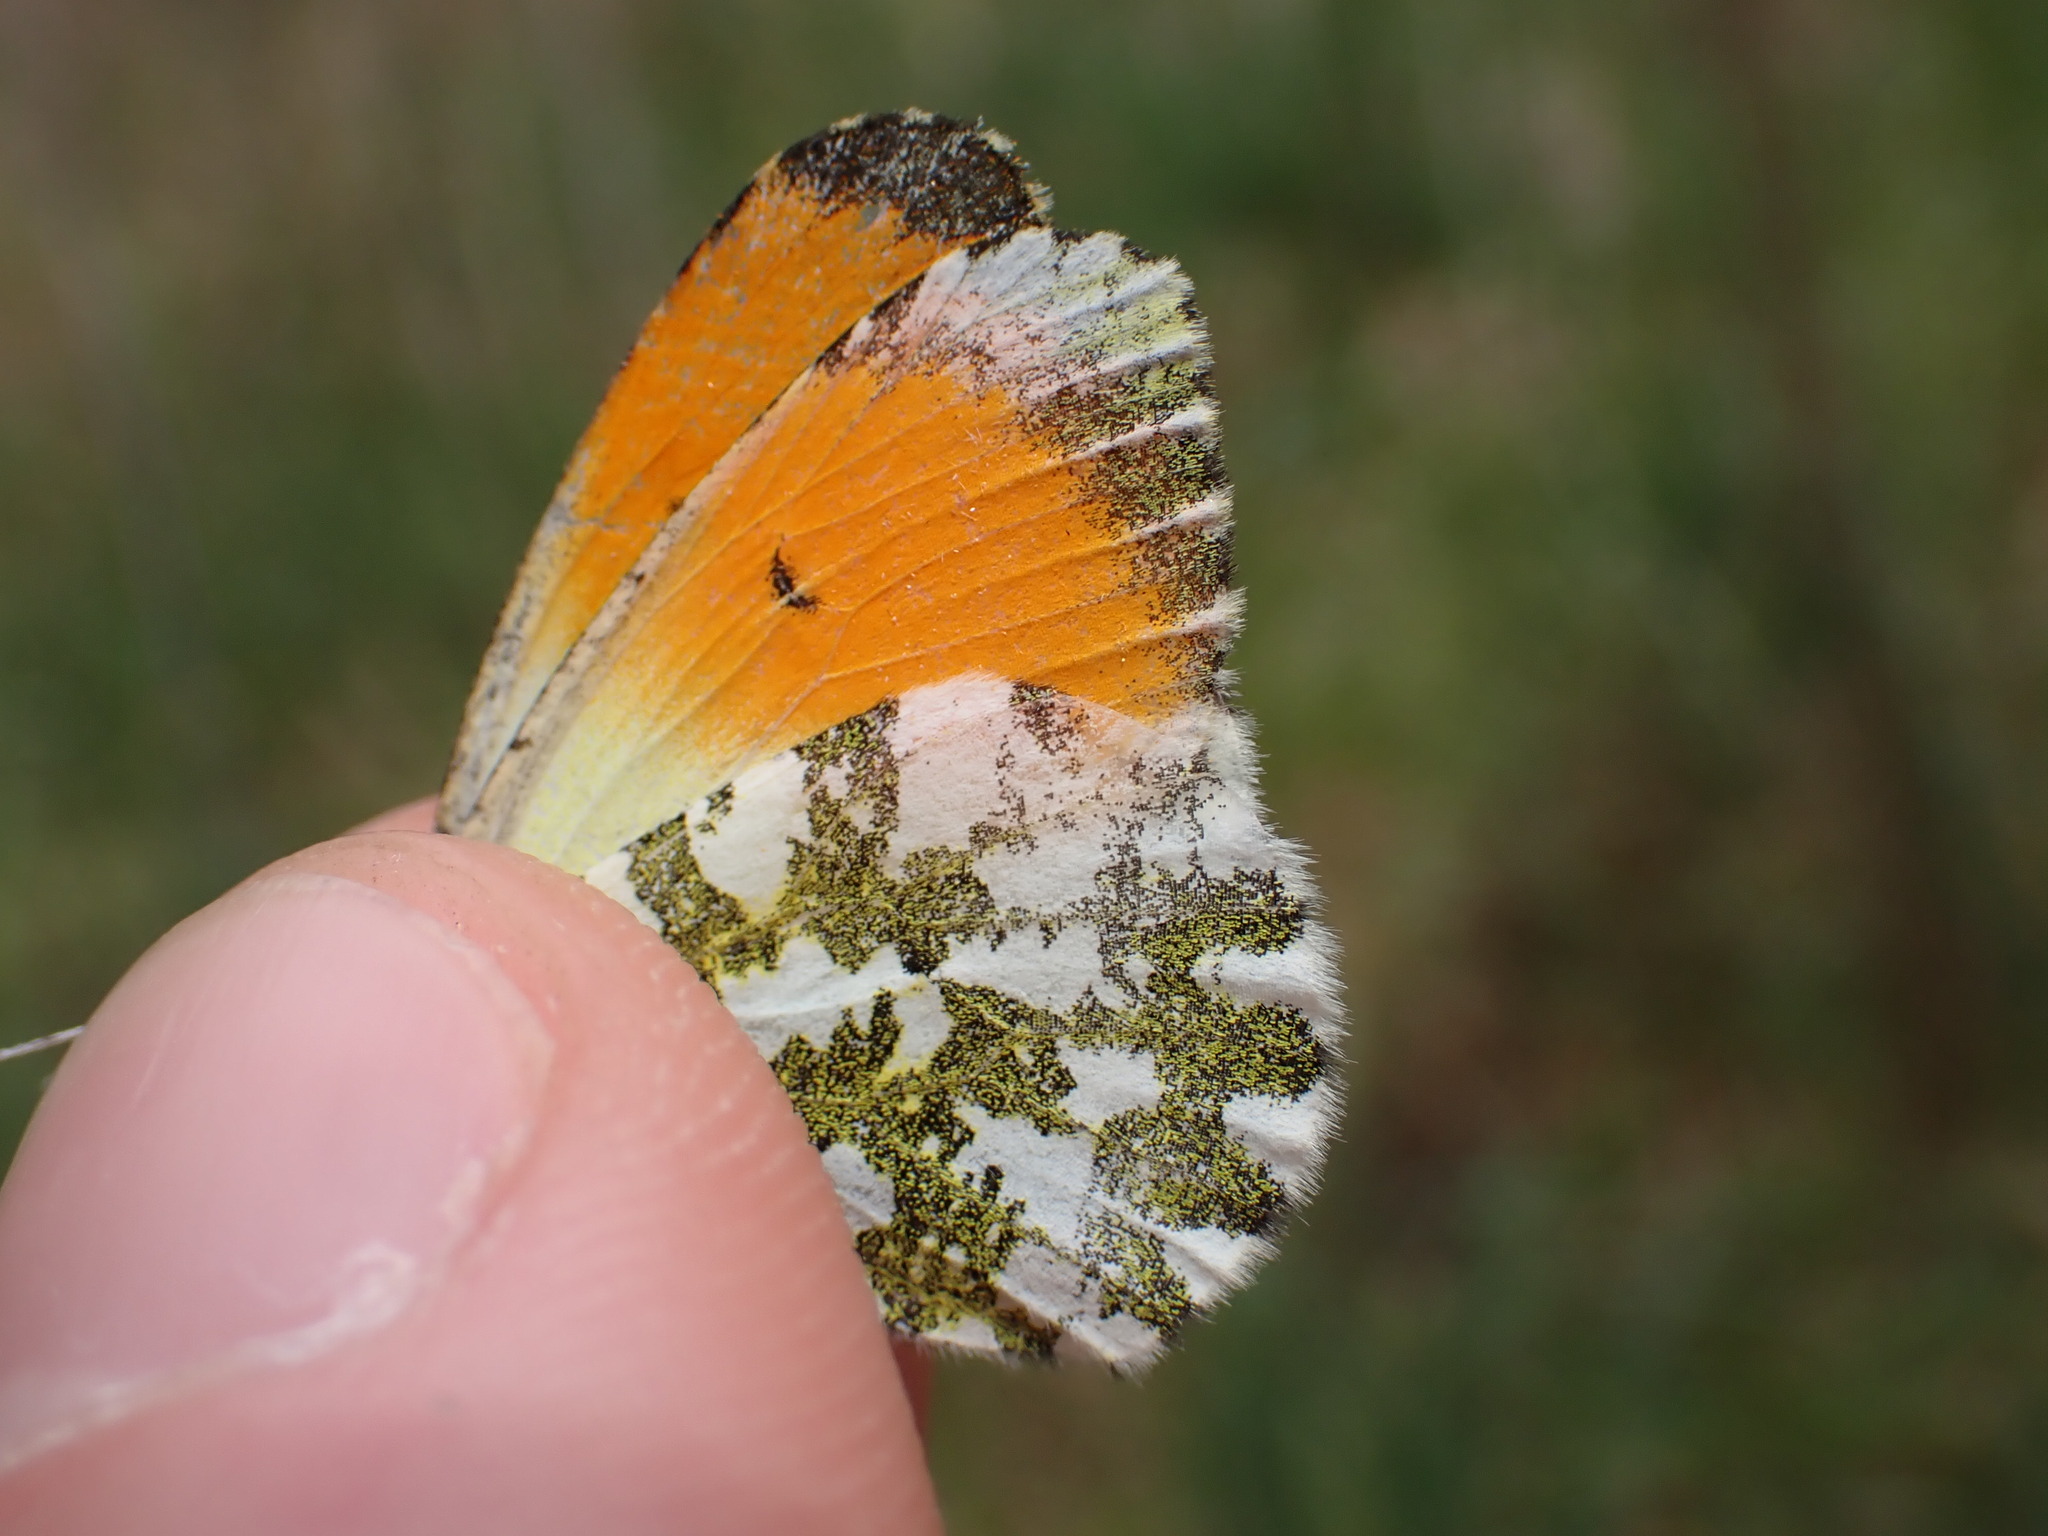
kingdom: Animalia
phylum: Arthropoda
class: Insecta
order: Lepidoptera
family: Pieridae
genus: Anthocharis
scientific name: Anthocharis cardamines
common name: Orange-tip
